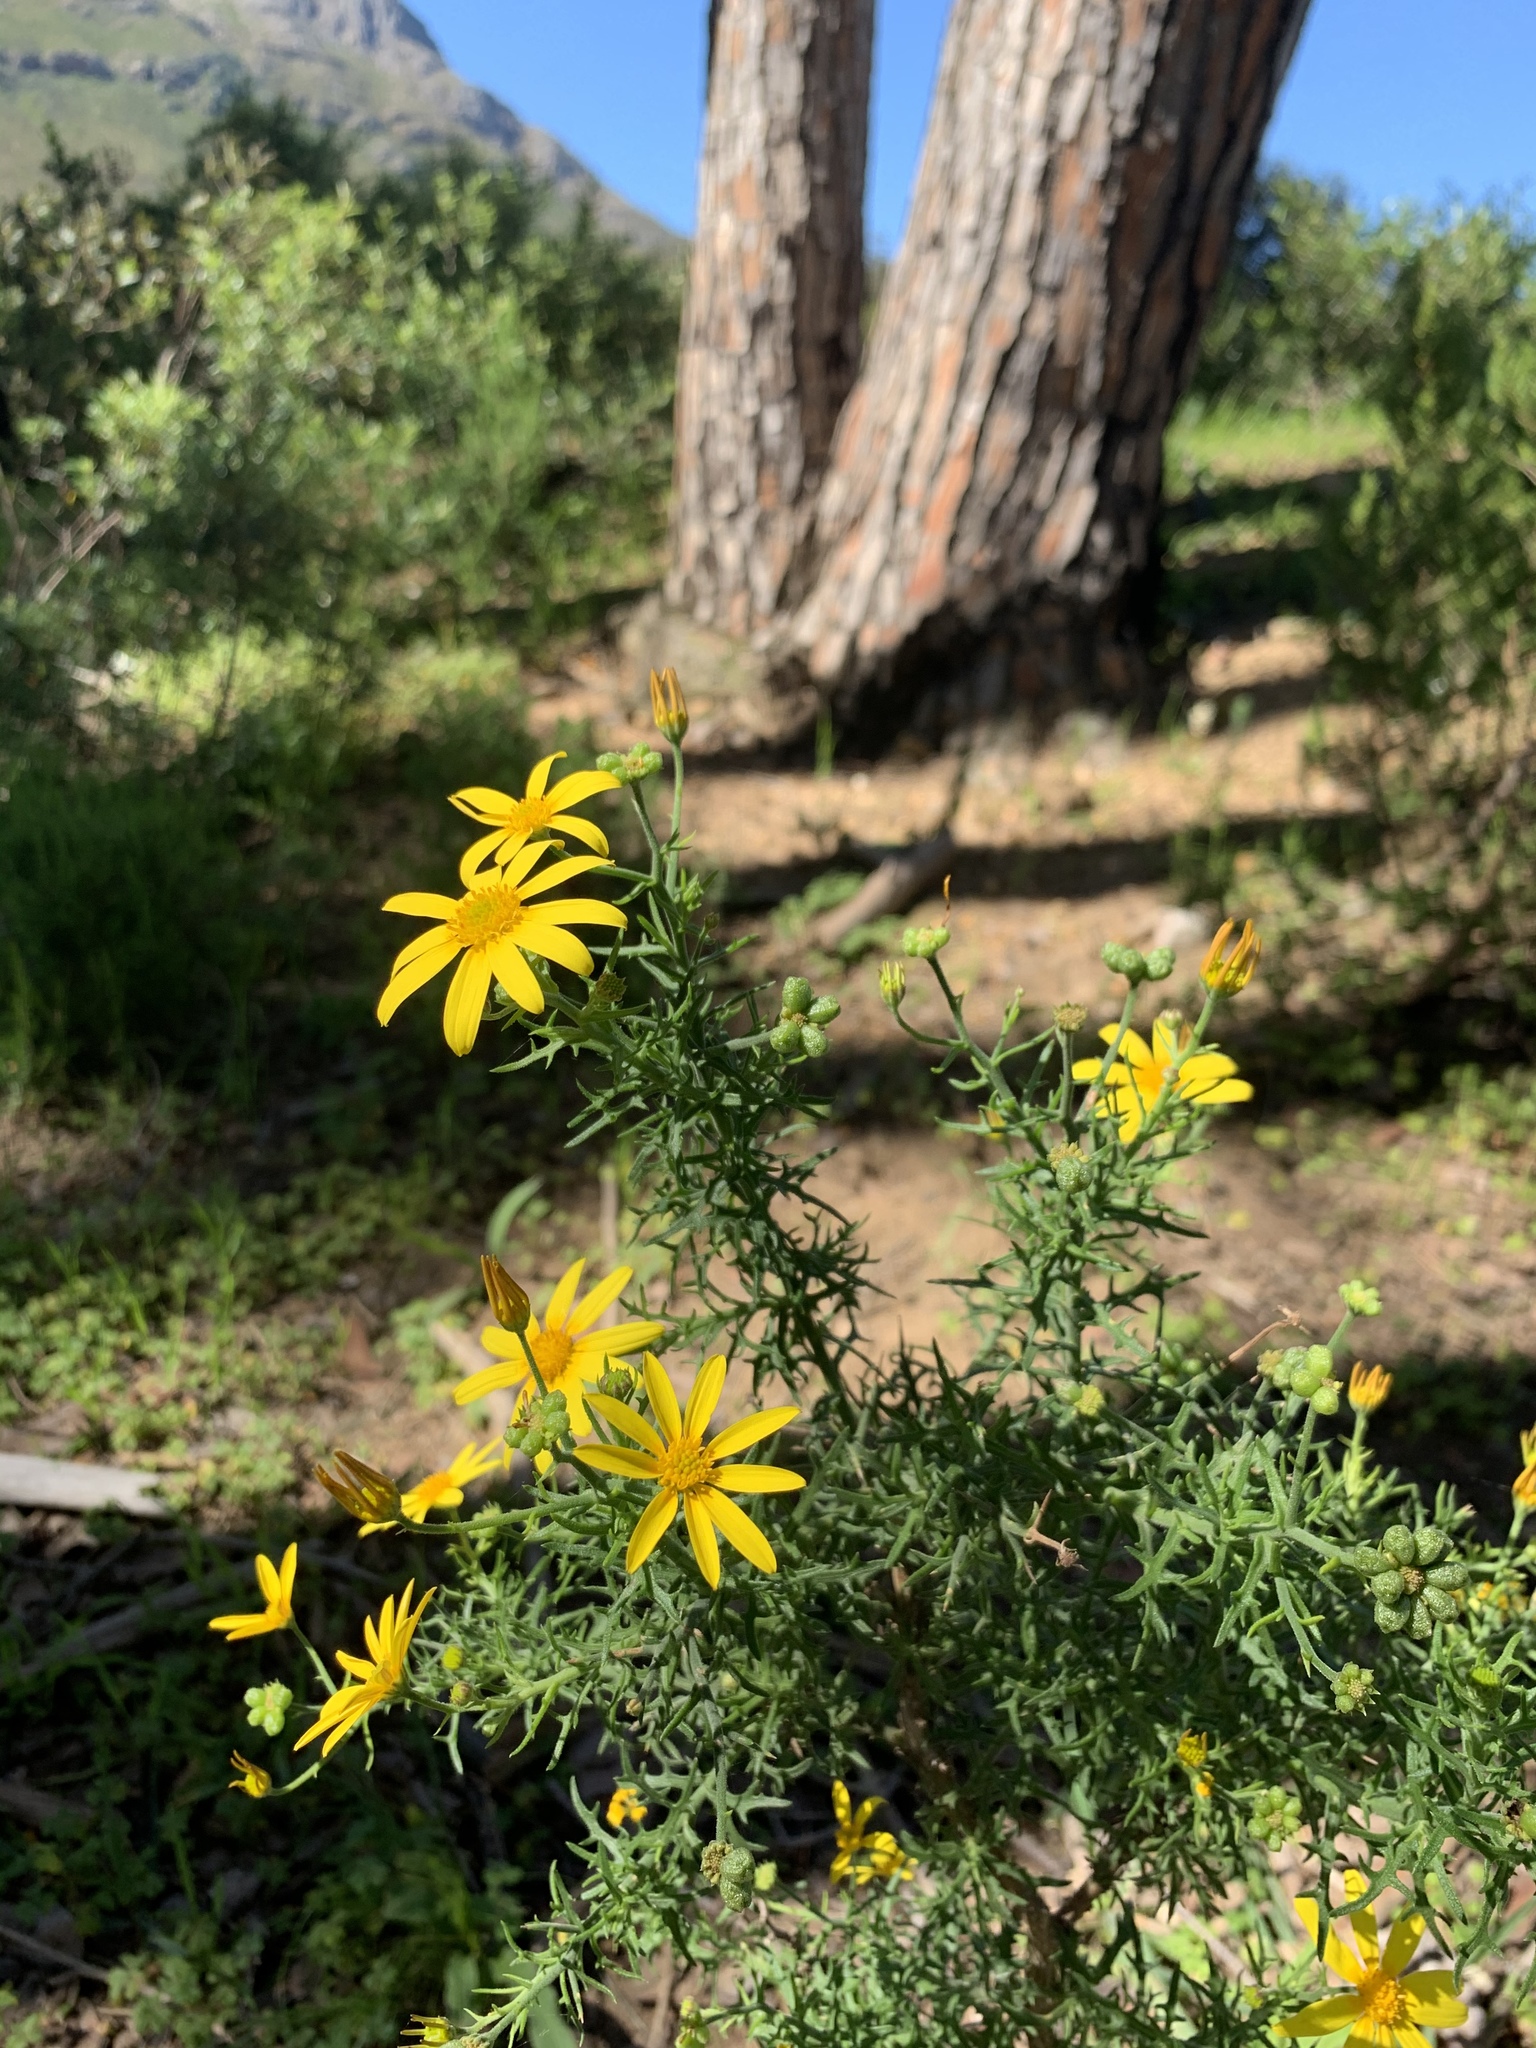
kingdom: Plantae
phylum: Tracheophyta
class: Magnoliopsida
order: Asterales
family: Asteraceae
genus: Osteospermum
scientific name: Osteospermum spinosum
